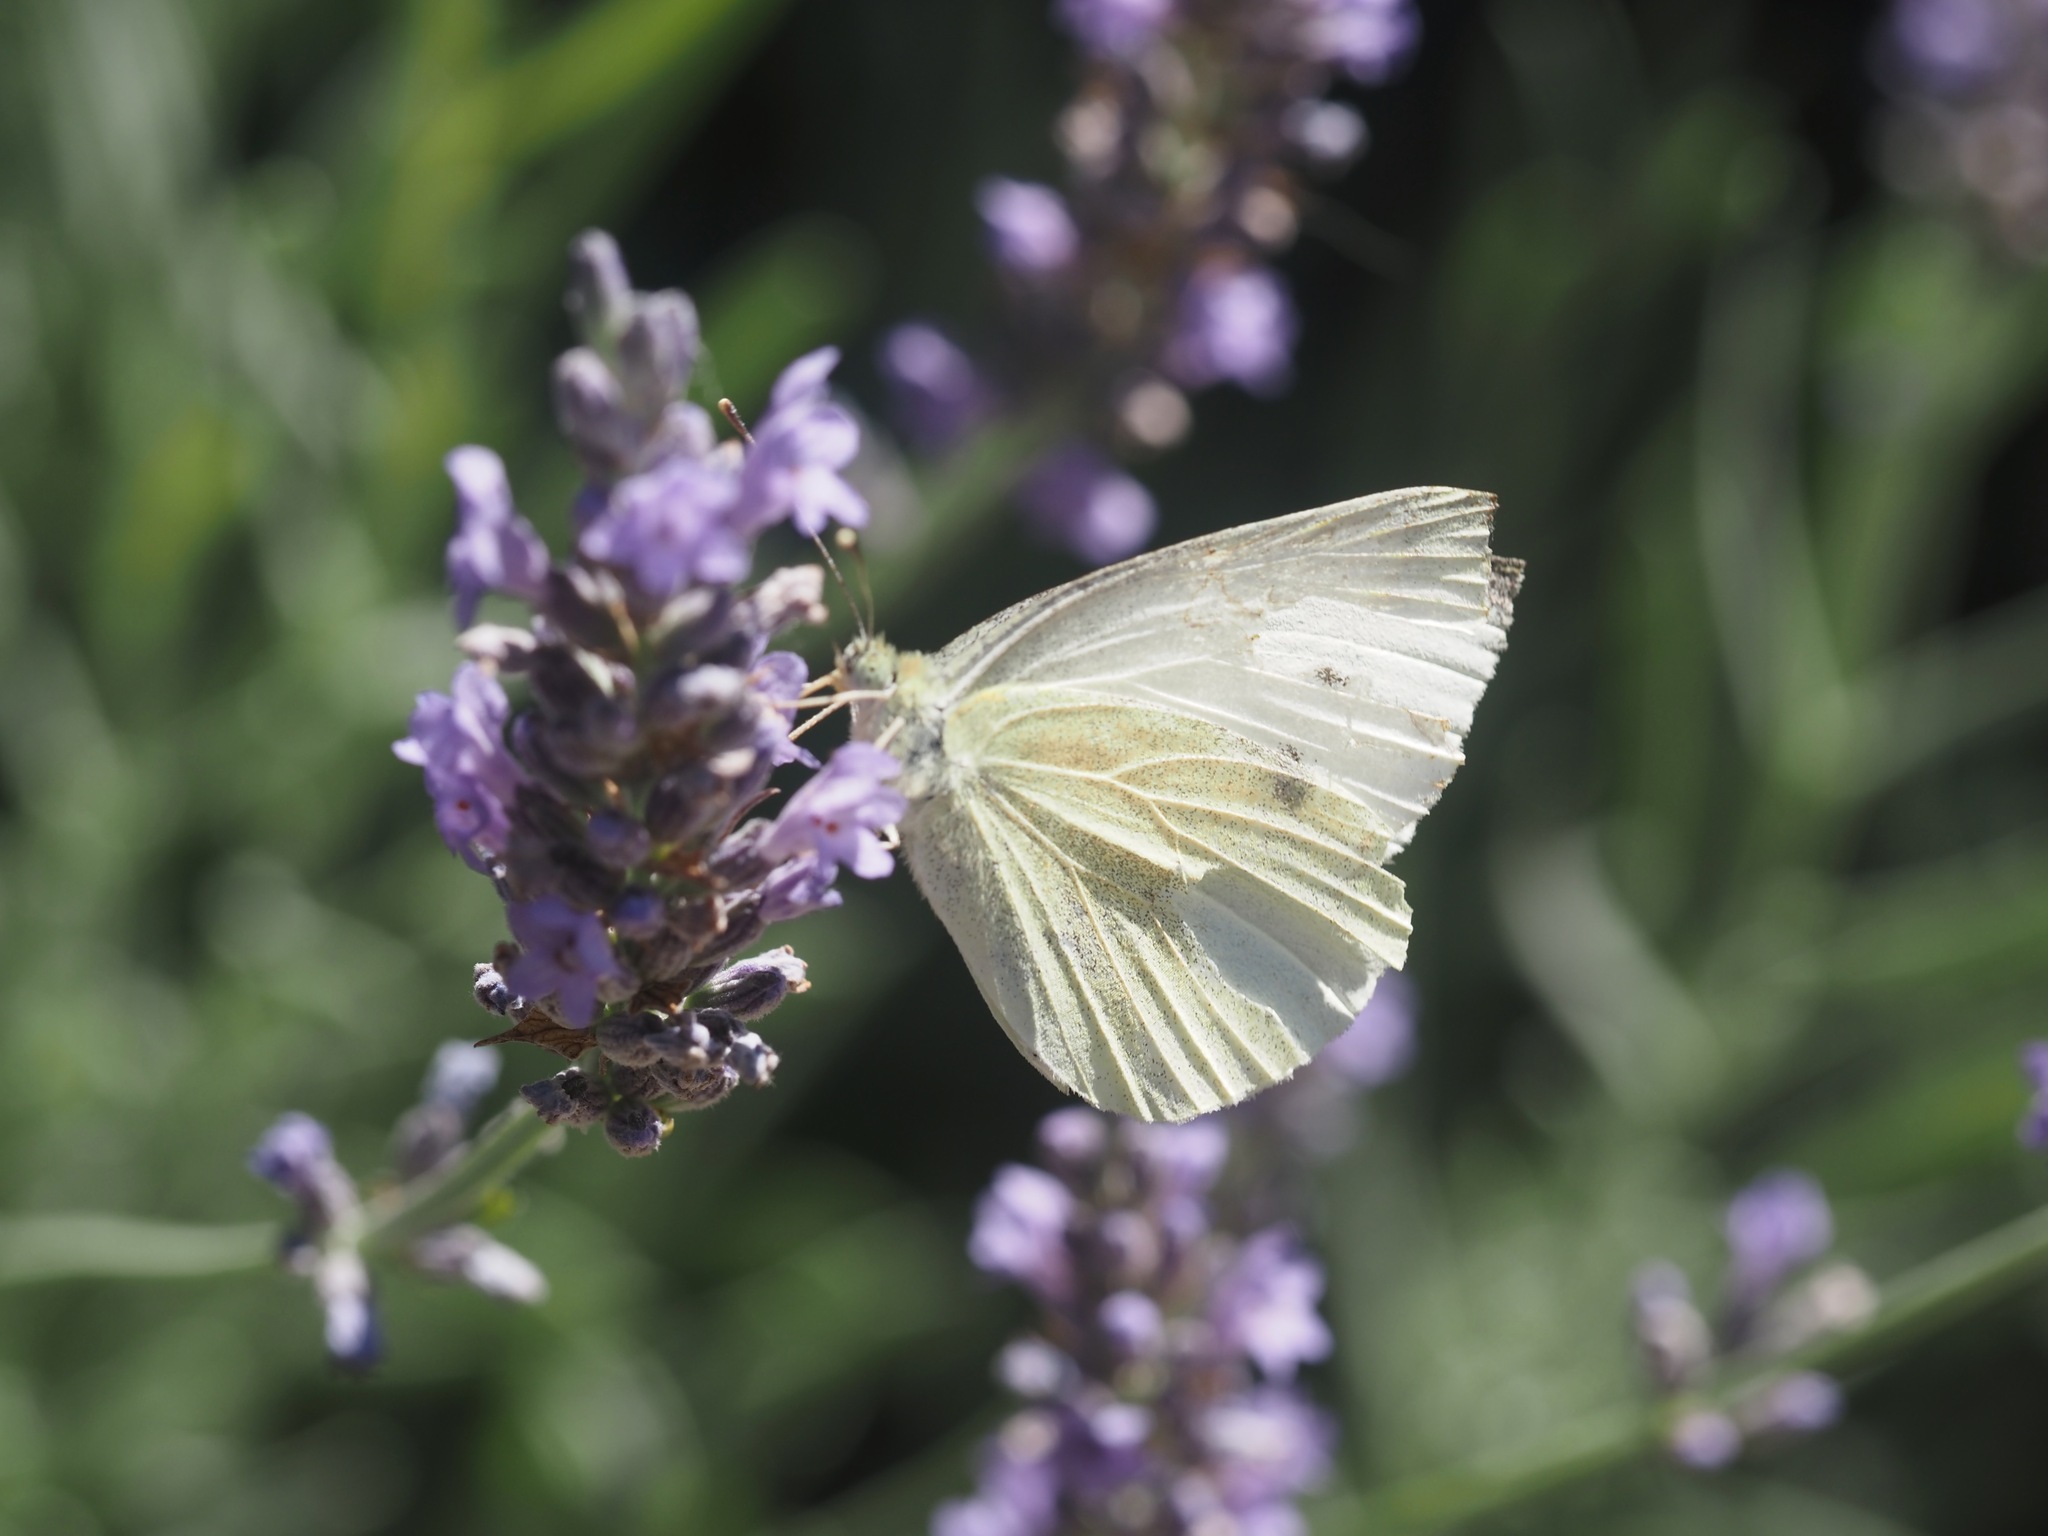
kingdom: Animalia
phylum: Arthropoda
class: Insecta
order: Lepidoptera
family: Pieridae
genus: Pieris
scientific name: Pieris rapae
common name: Small white
